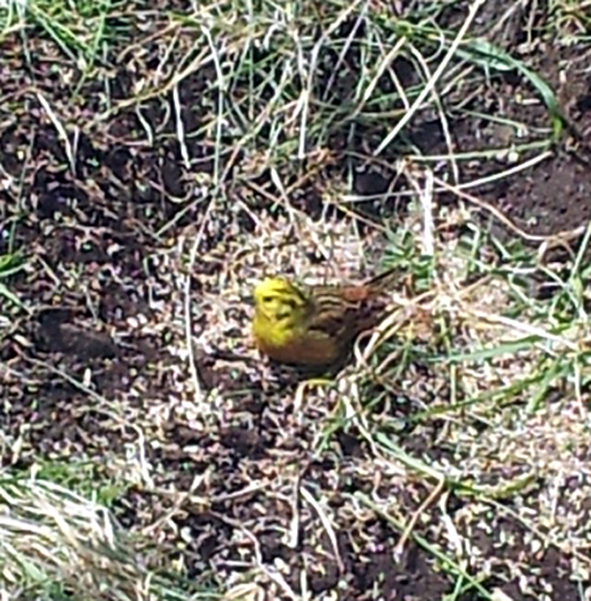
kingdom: Animalia
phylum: Chordata
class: Aves
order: Passeriformes
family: Emberizidae
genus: Emberiza
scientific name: Emberiza citrinella
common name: Yellowhammer
